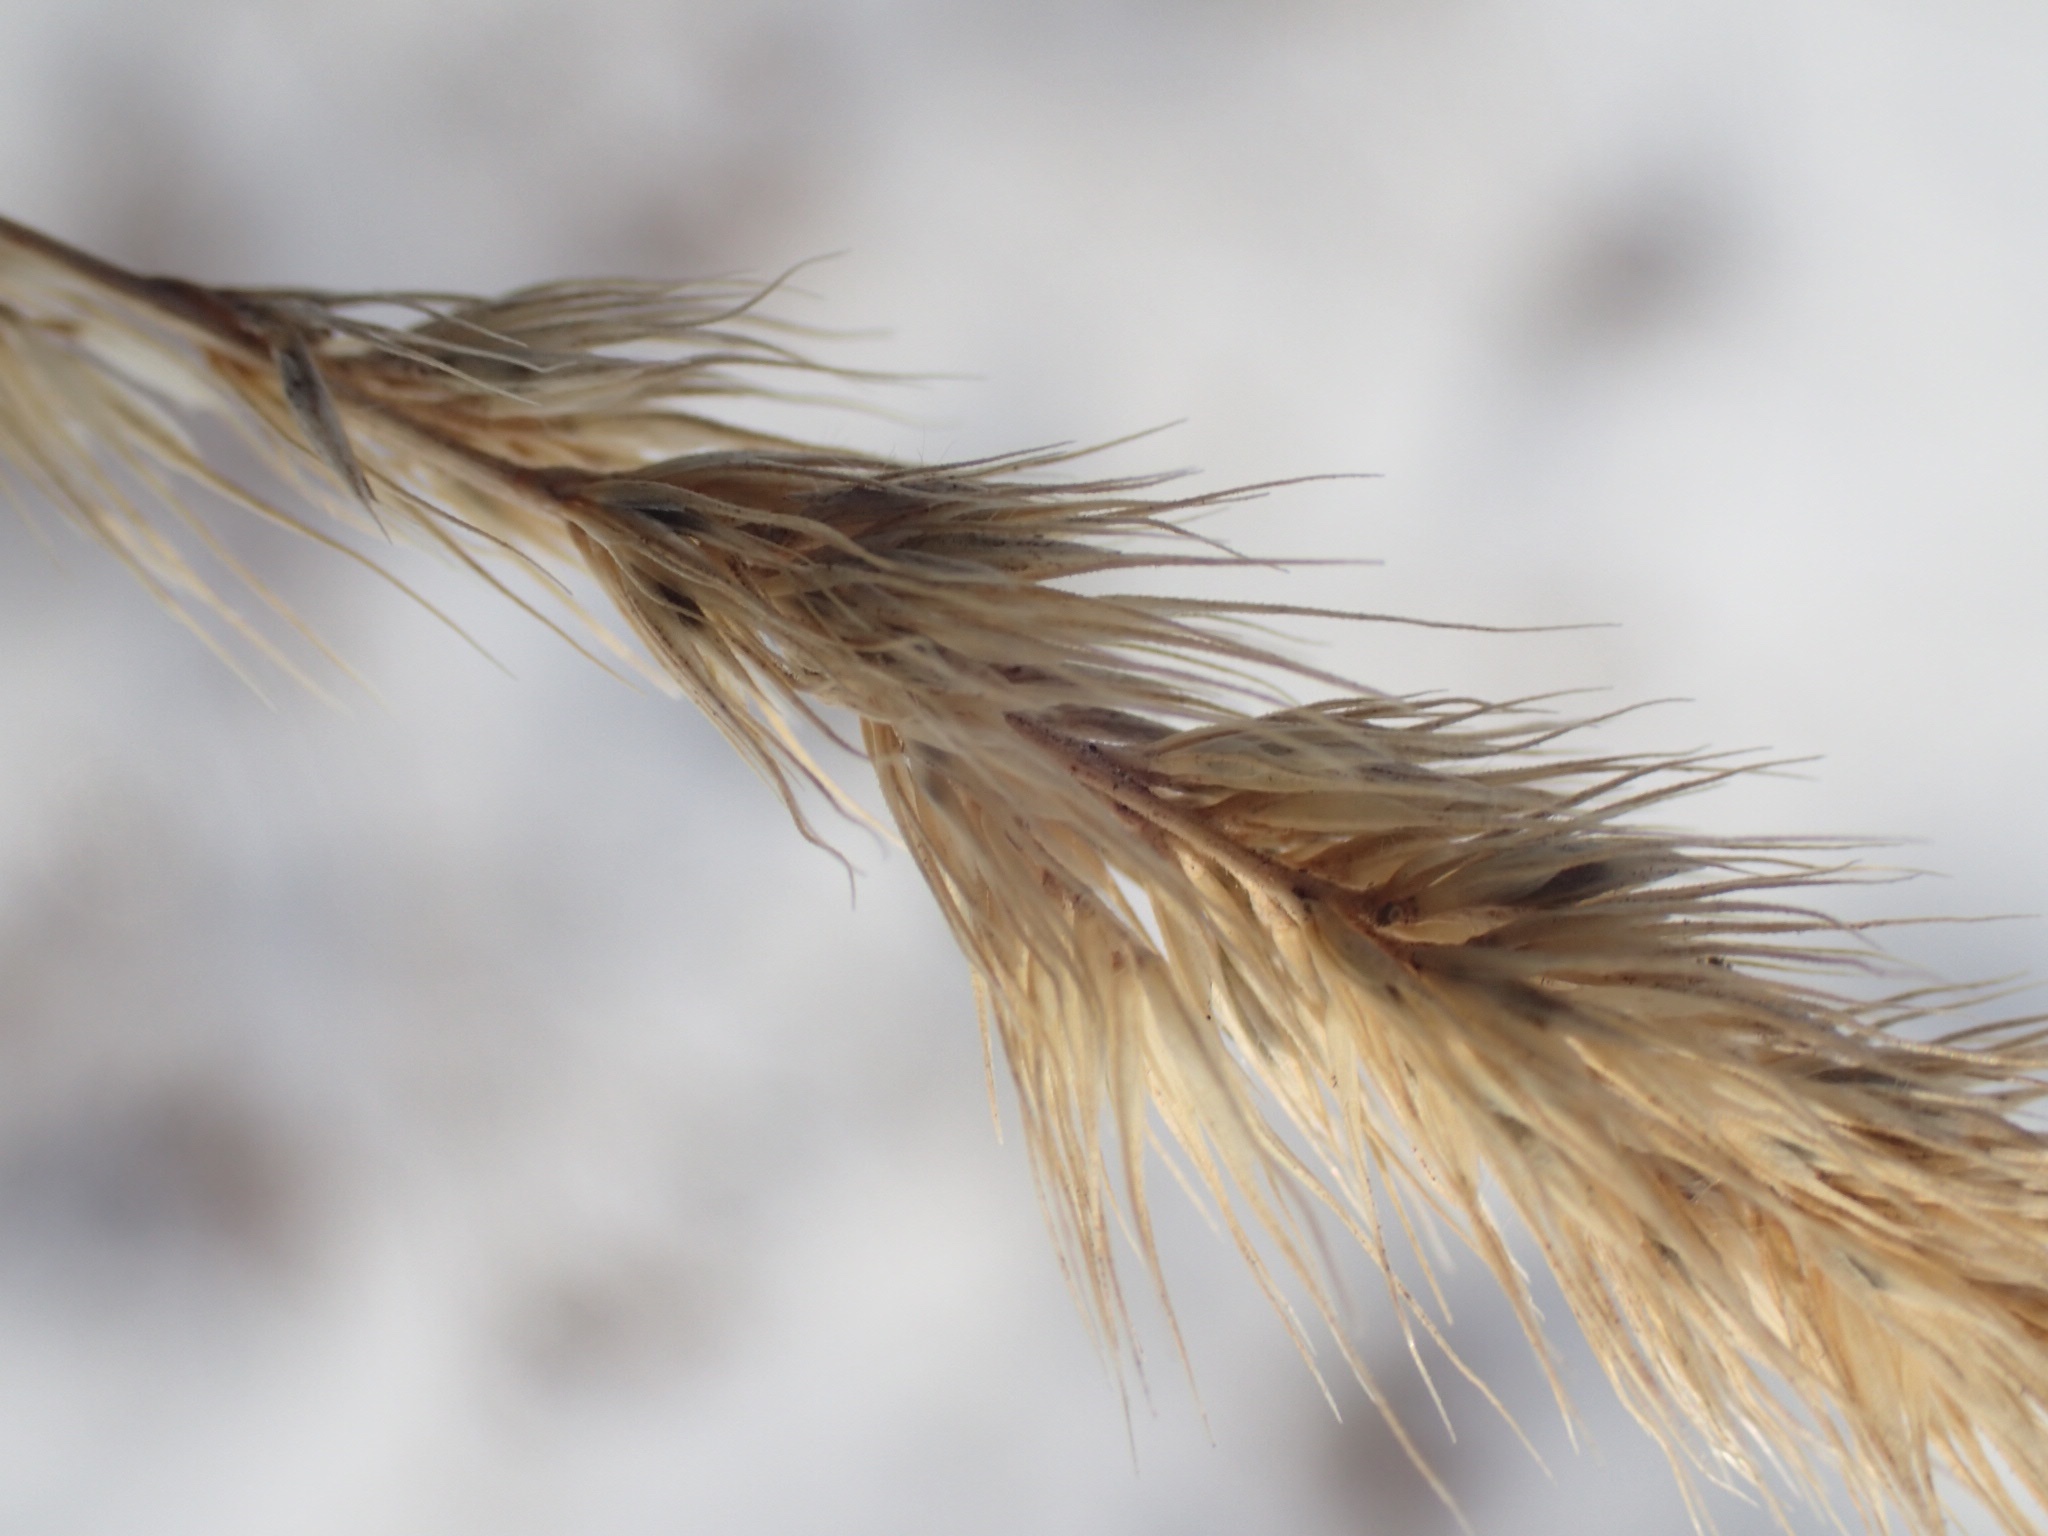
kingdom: Plantae
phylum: Tracheophyta
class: Liliopsida
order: Poales
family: Poaceae
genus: Muhlenbergia
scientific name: Muhlenbergia glomerata
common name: Bog muhly
